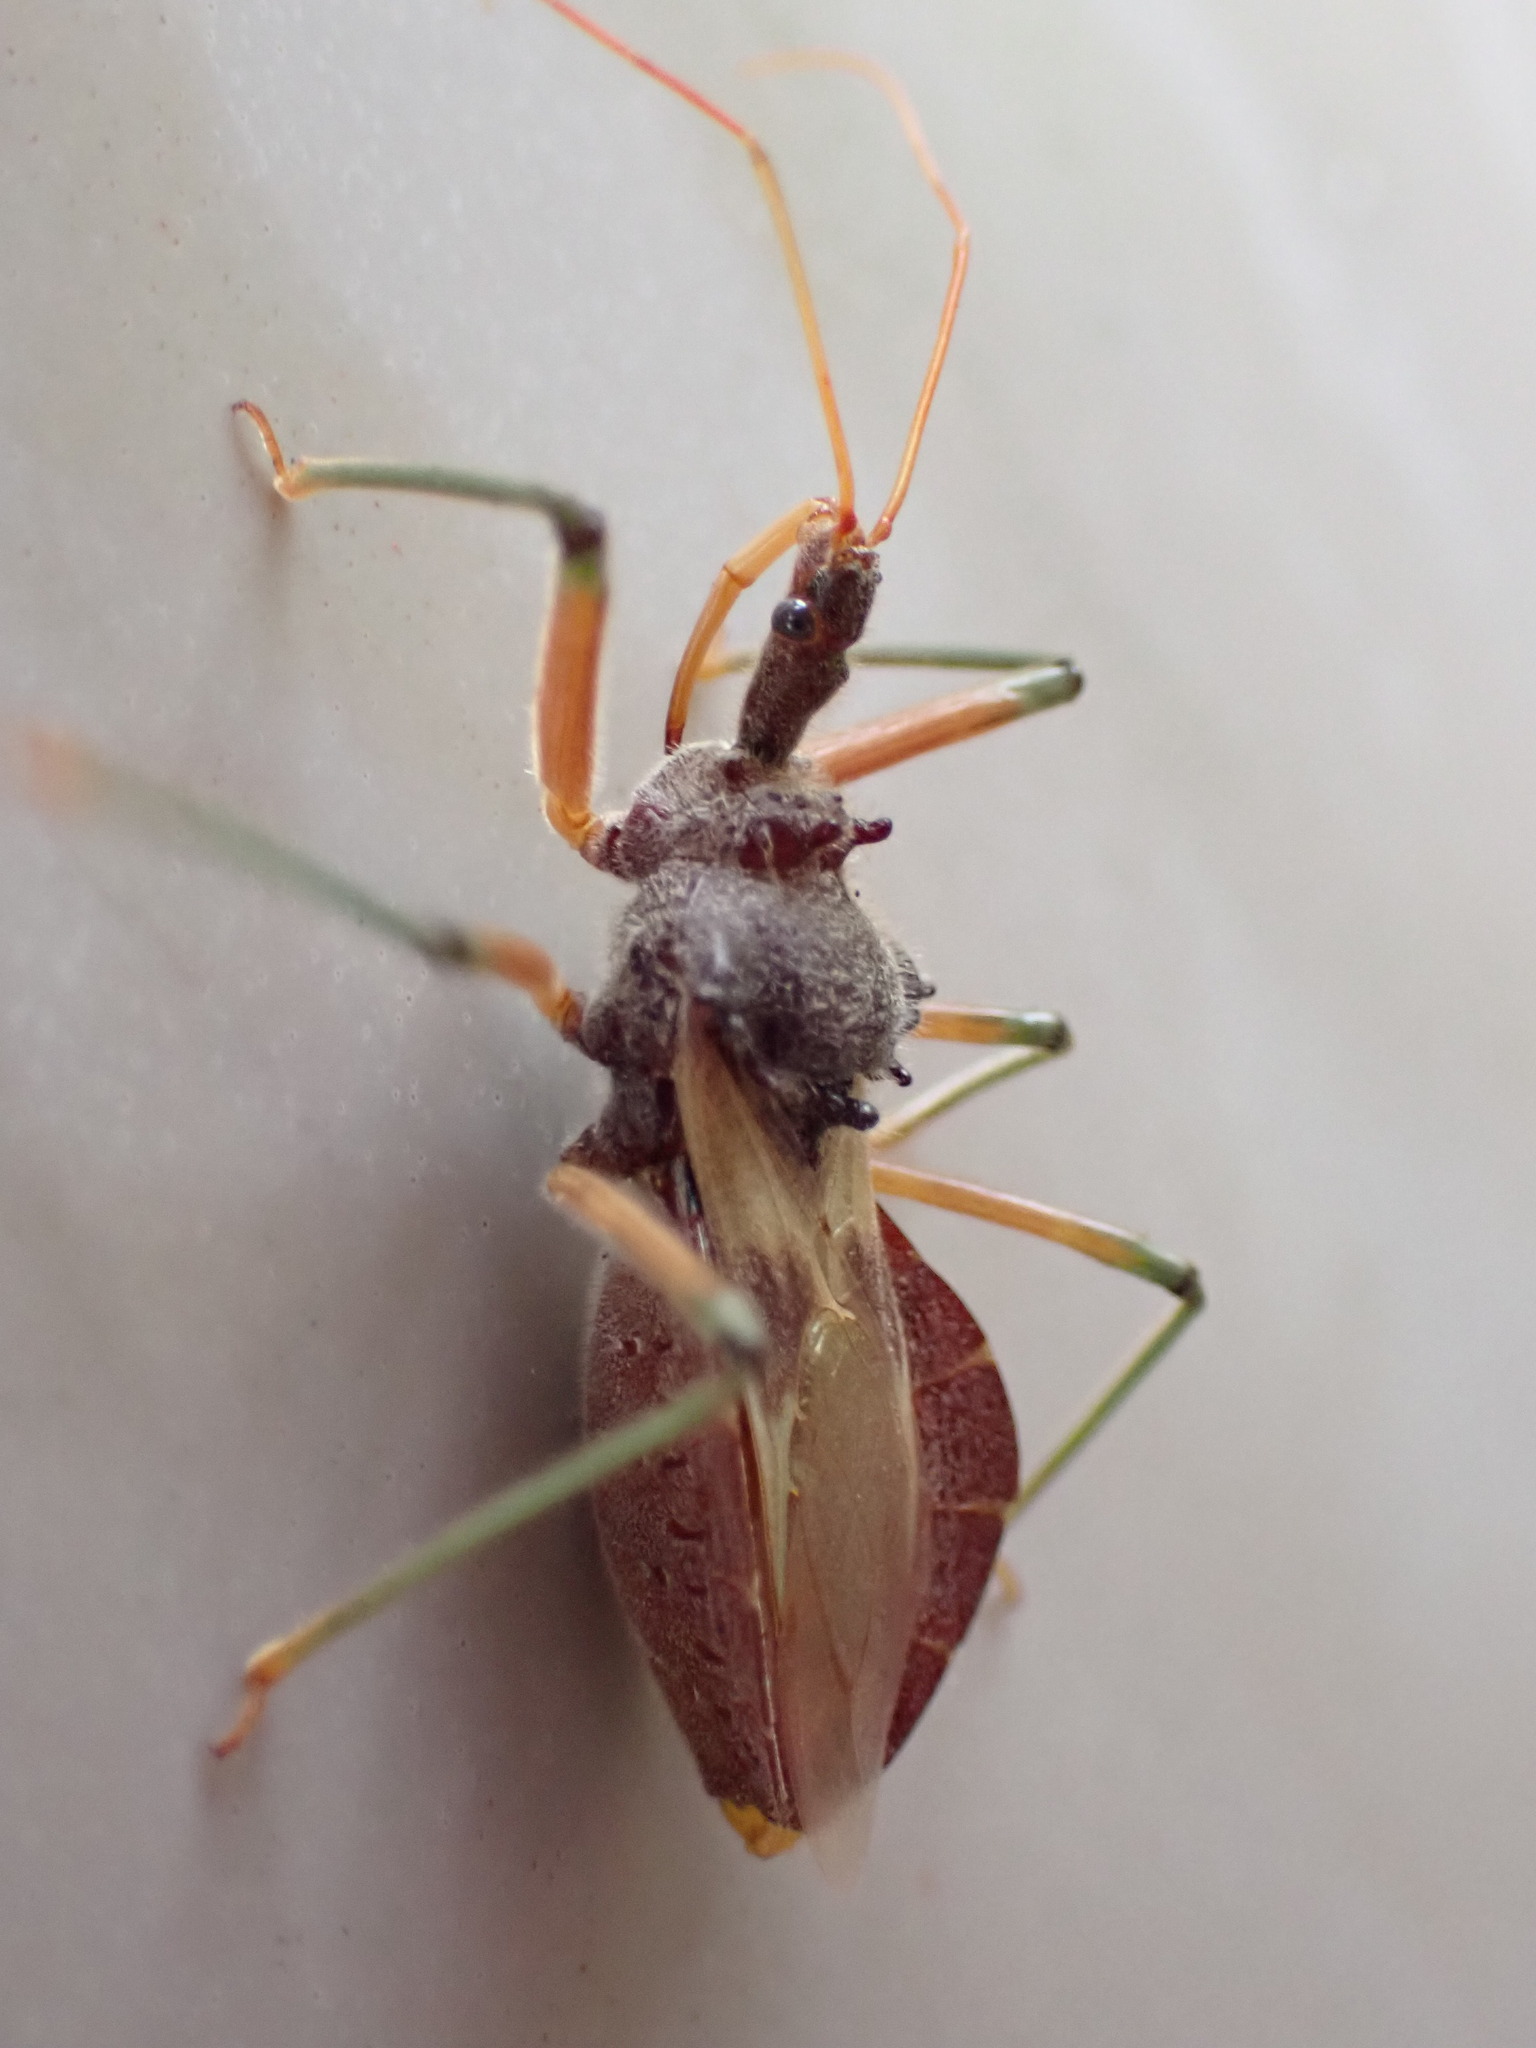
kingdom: Animalia
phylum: Arthropoda
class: Insecta
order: Hemiptera
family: Reduviidae
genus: Pristhesancus
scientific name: Pristhesancus plagipennis
